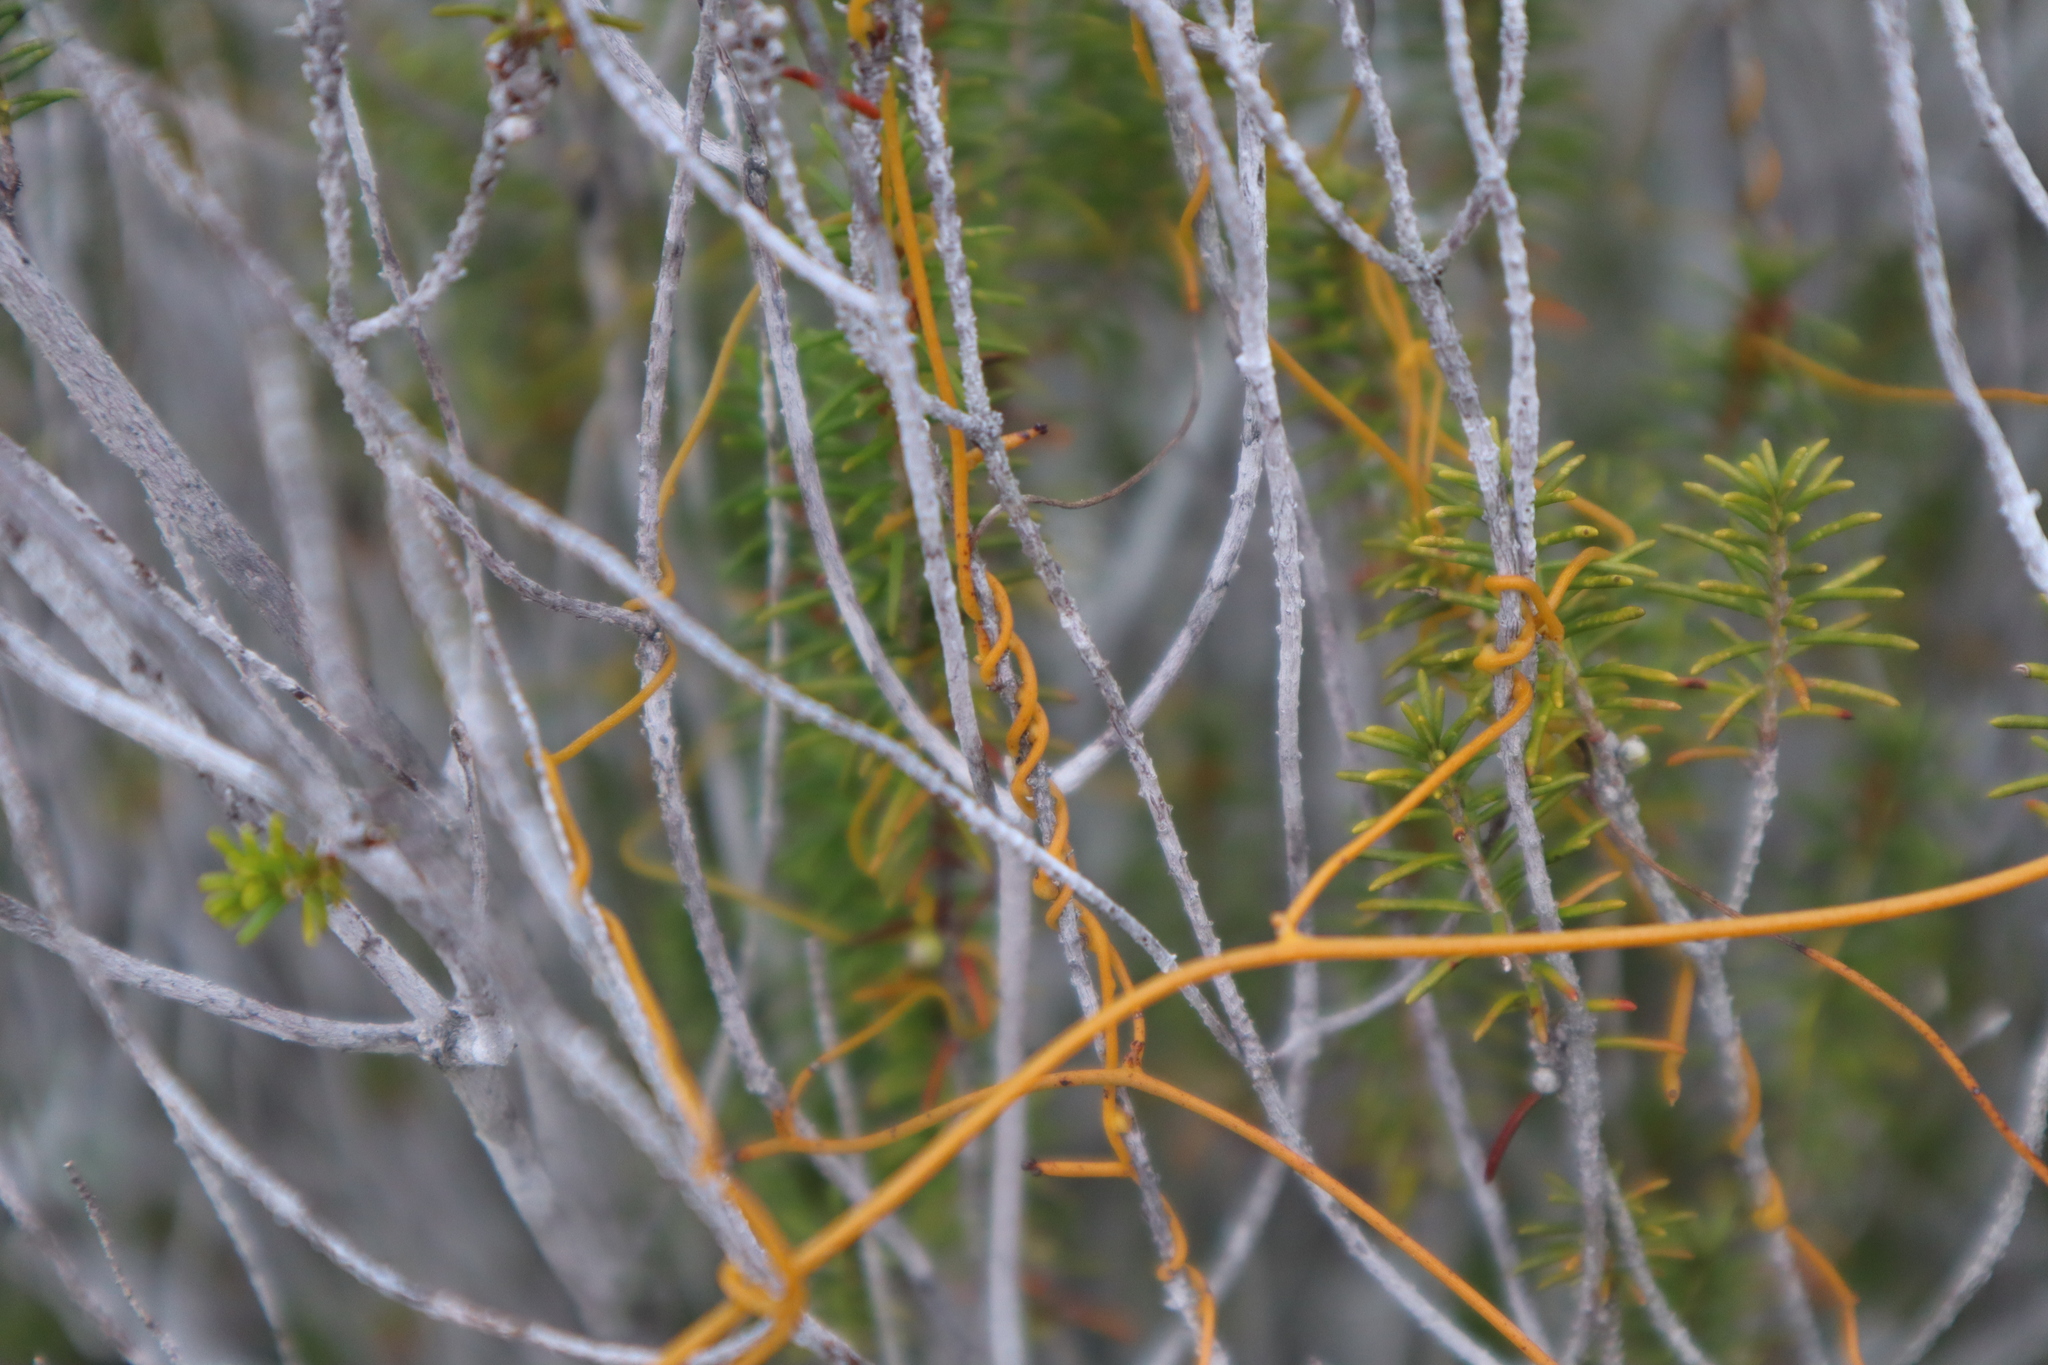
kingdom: Plantae
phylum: Tracheophyta
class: Magnoliopsida
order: Ericales
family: Ericaceae
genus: Ceratiola
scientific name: Ceratiola ericoides
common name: Sandhill-rosemary
